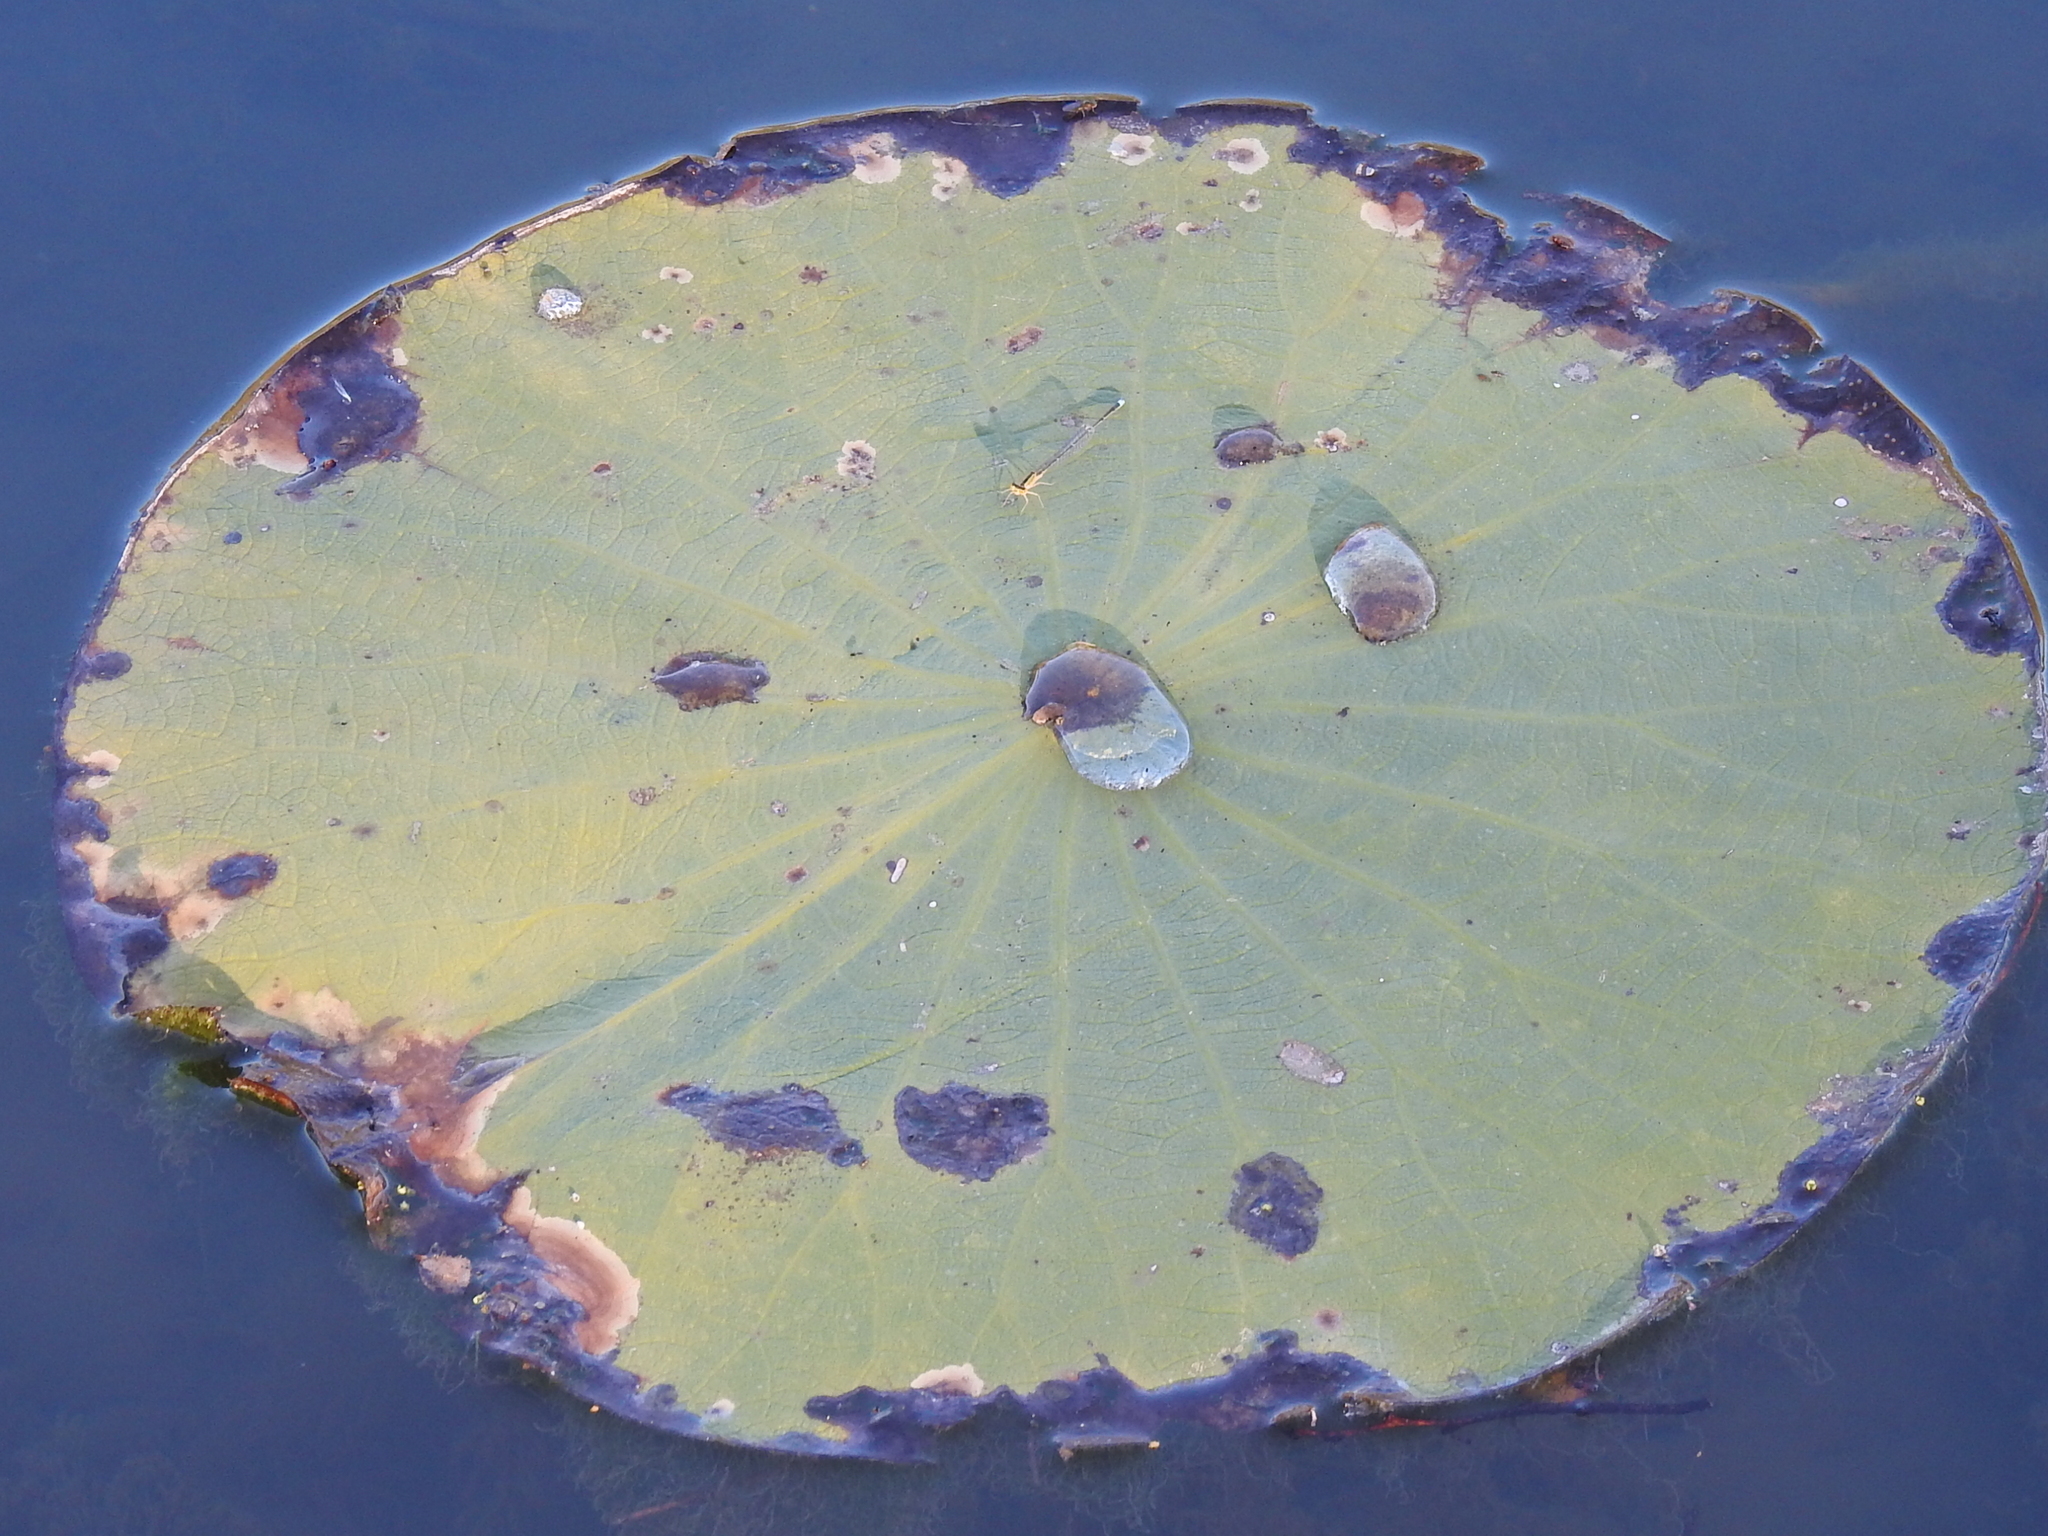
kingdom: Plantae
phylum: Tracheophyta
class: Magnoliopsida
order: Proteales
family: Nelumbonaceae
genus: Nelumbo
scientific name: Nelumbo lutea
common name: American lotus
